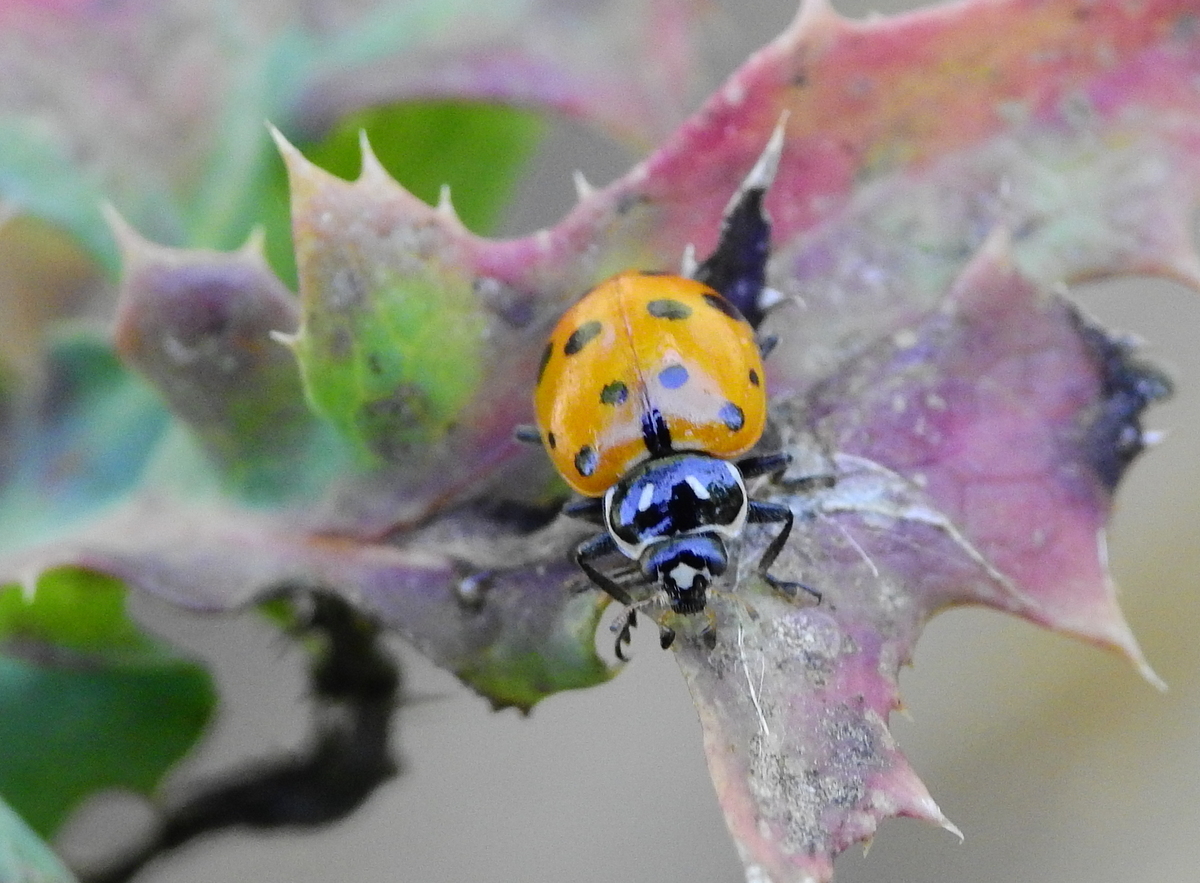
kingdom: Animalia
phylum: Arthropoda
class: Insecta
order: Coleoptera
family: Coccinellidae
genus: Hippodamia
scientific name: Hippodamia convergens
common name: Convergent lady beetle
